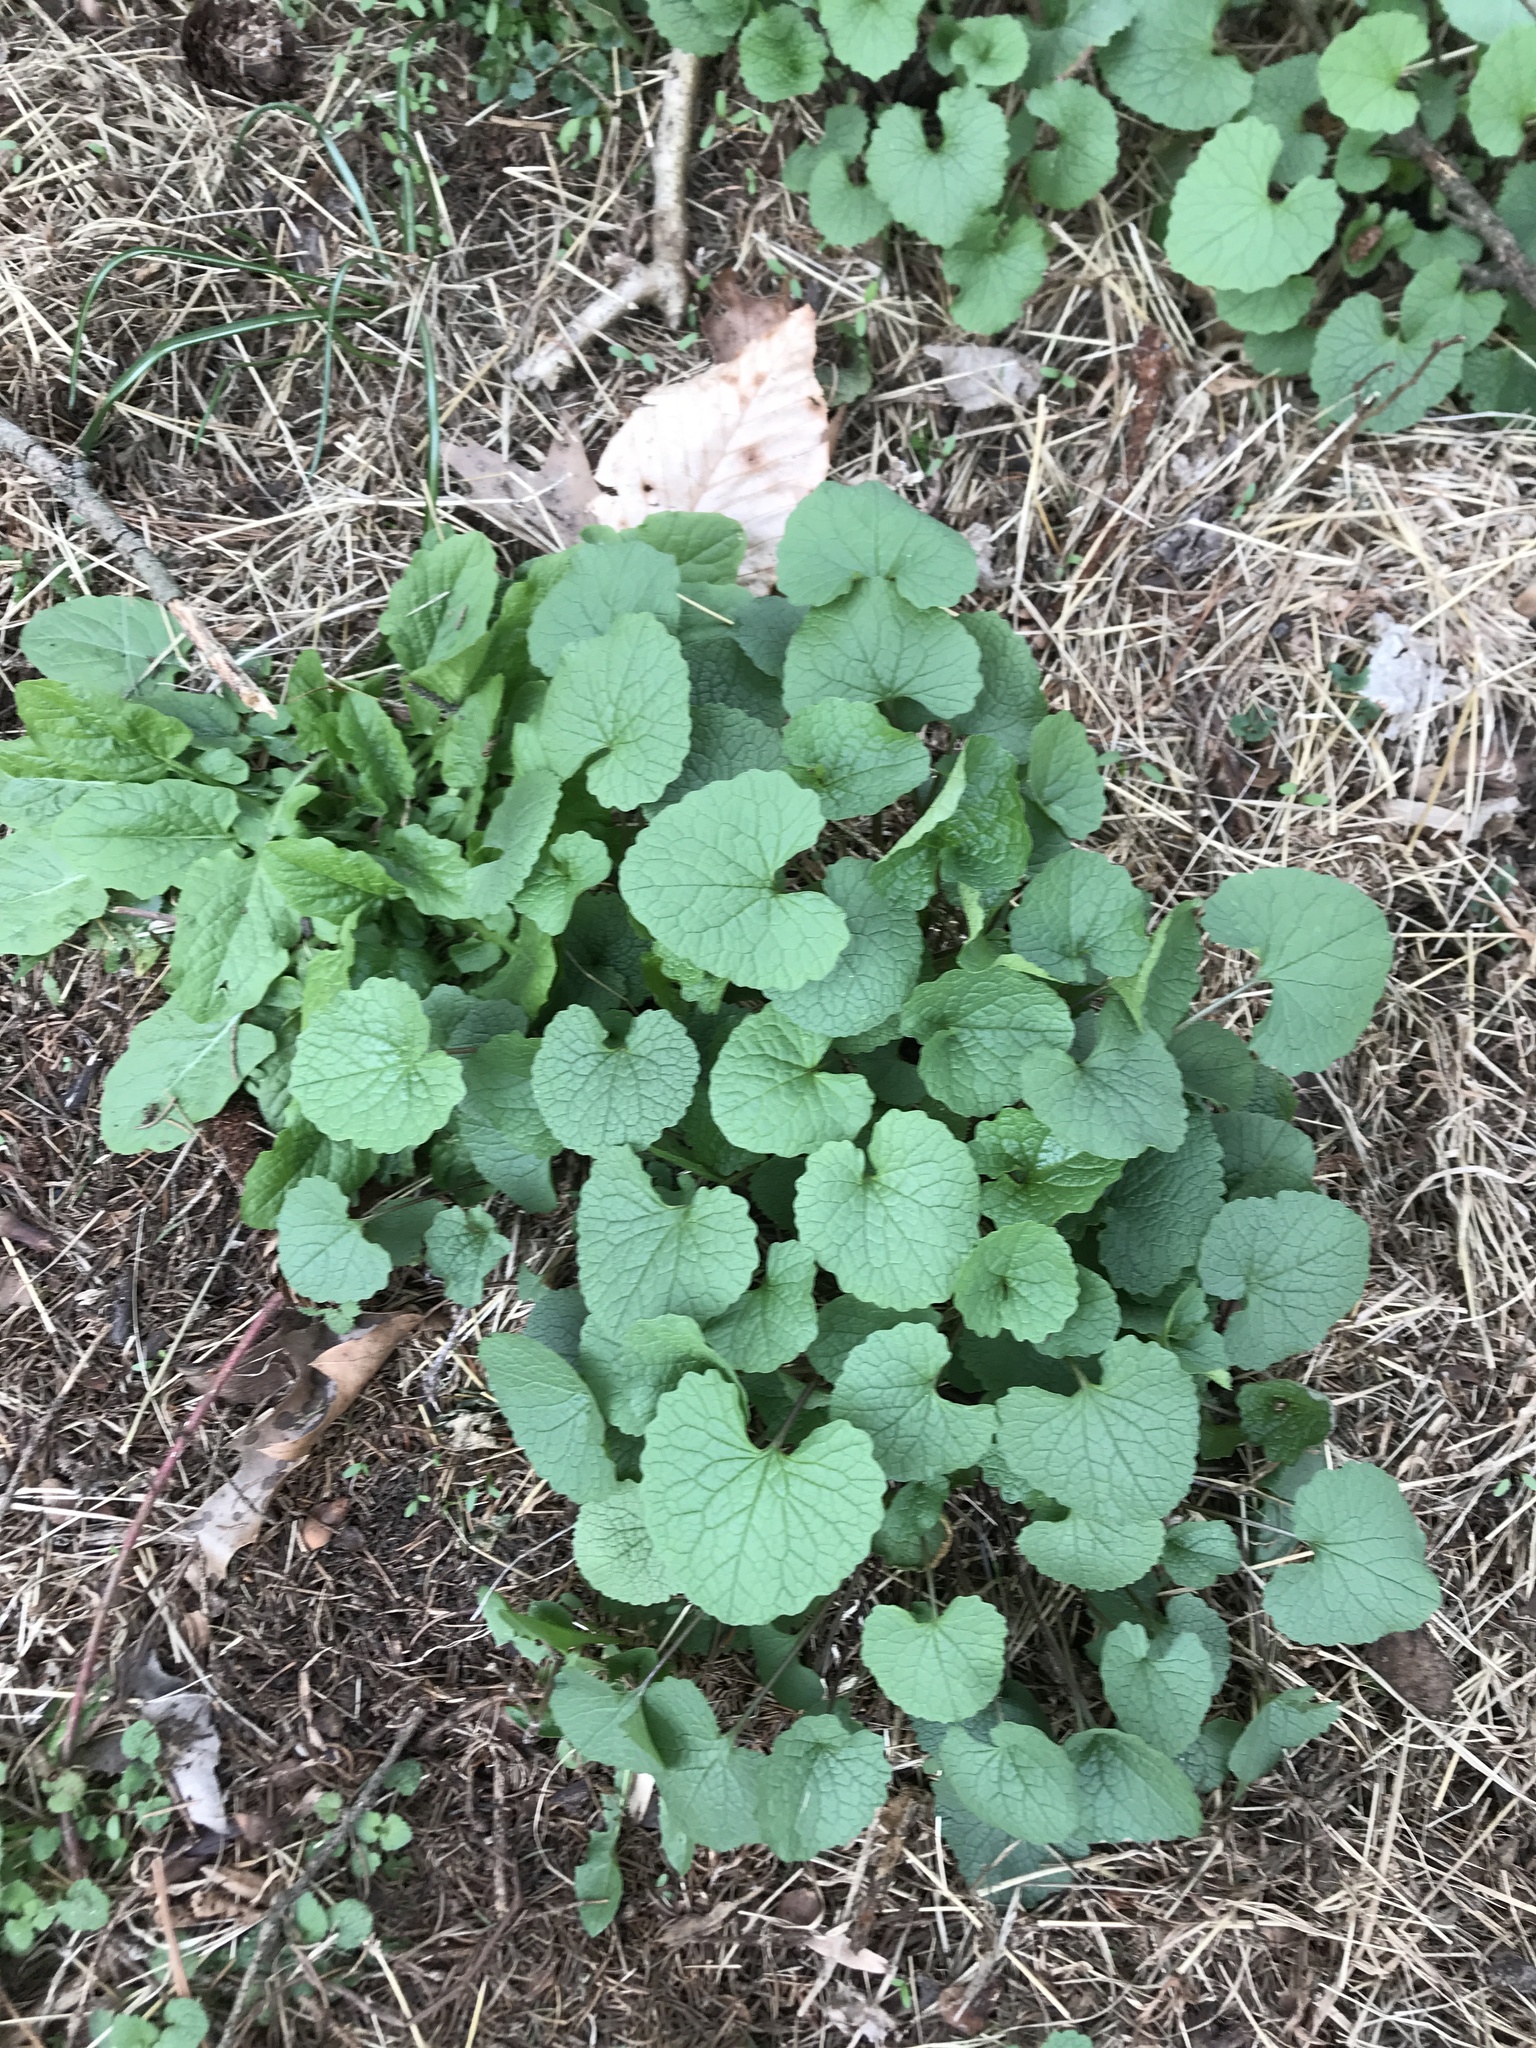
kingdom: Plantae
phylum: Tracheophyta
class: Magnoliopsida
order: Brassicales
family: Brassicaceae
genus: Alliaria
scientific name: Alliaria petiolata
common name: Garlic mustard
